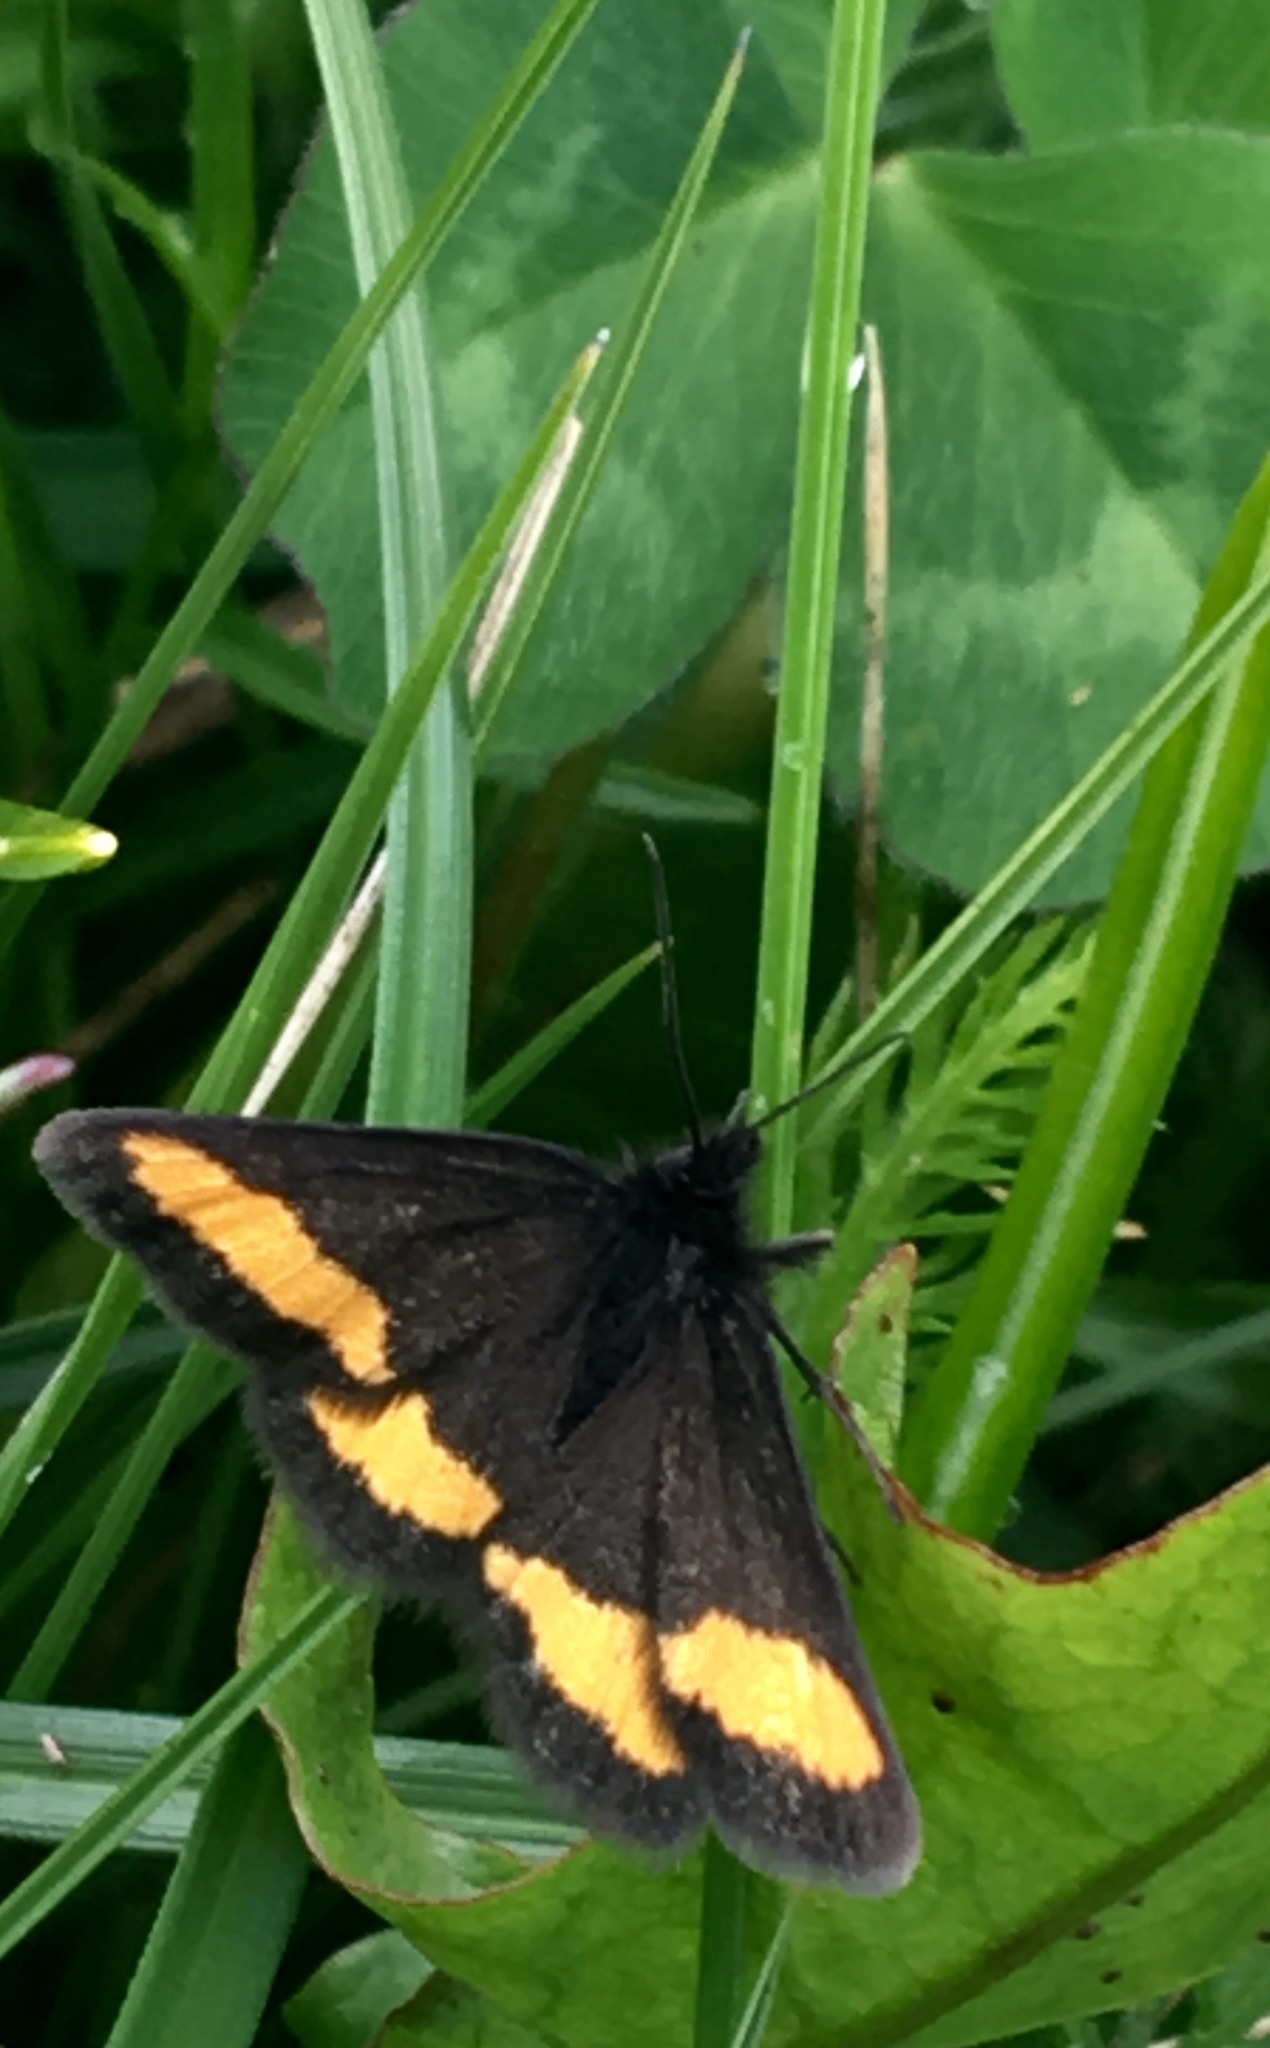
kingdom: Animalia
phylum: Arthropoda
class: Insecta
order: Lepidoptera
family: Geometridae
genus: Psodos
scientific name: Psodos quadrifaria
